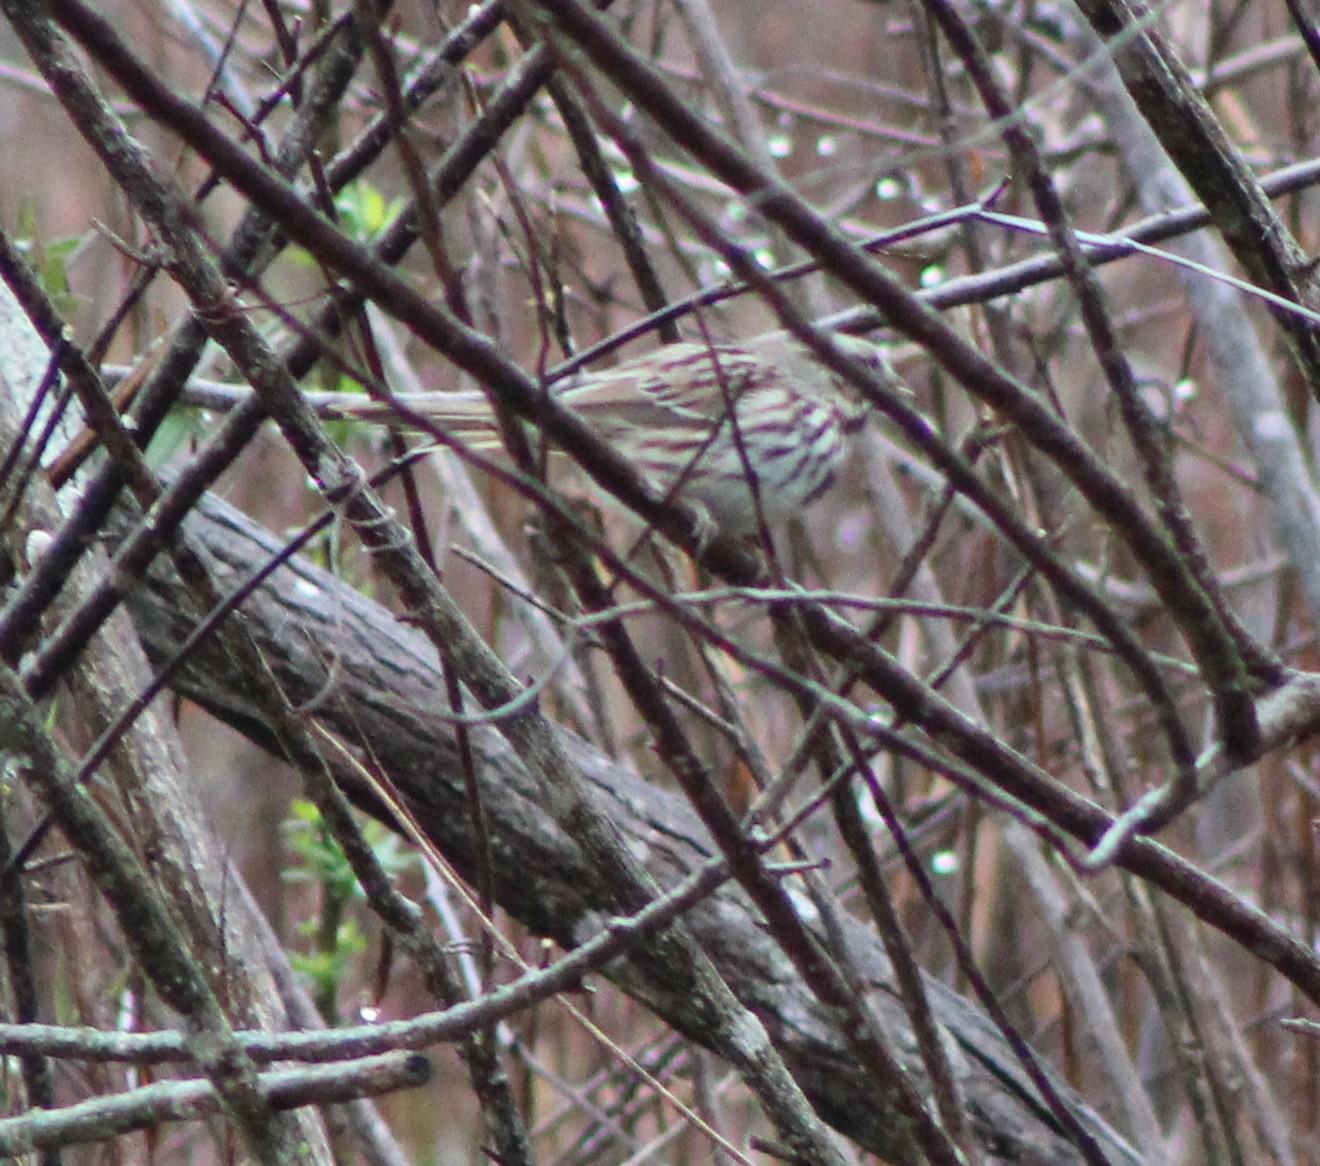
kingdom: Animalia
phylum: Chordata
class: Aves
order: Passeriformes
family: Passerellidae
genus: Melospiza
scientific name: Melospiza melodia
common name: Song sparrow
